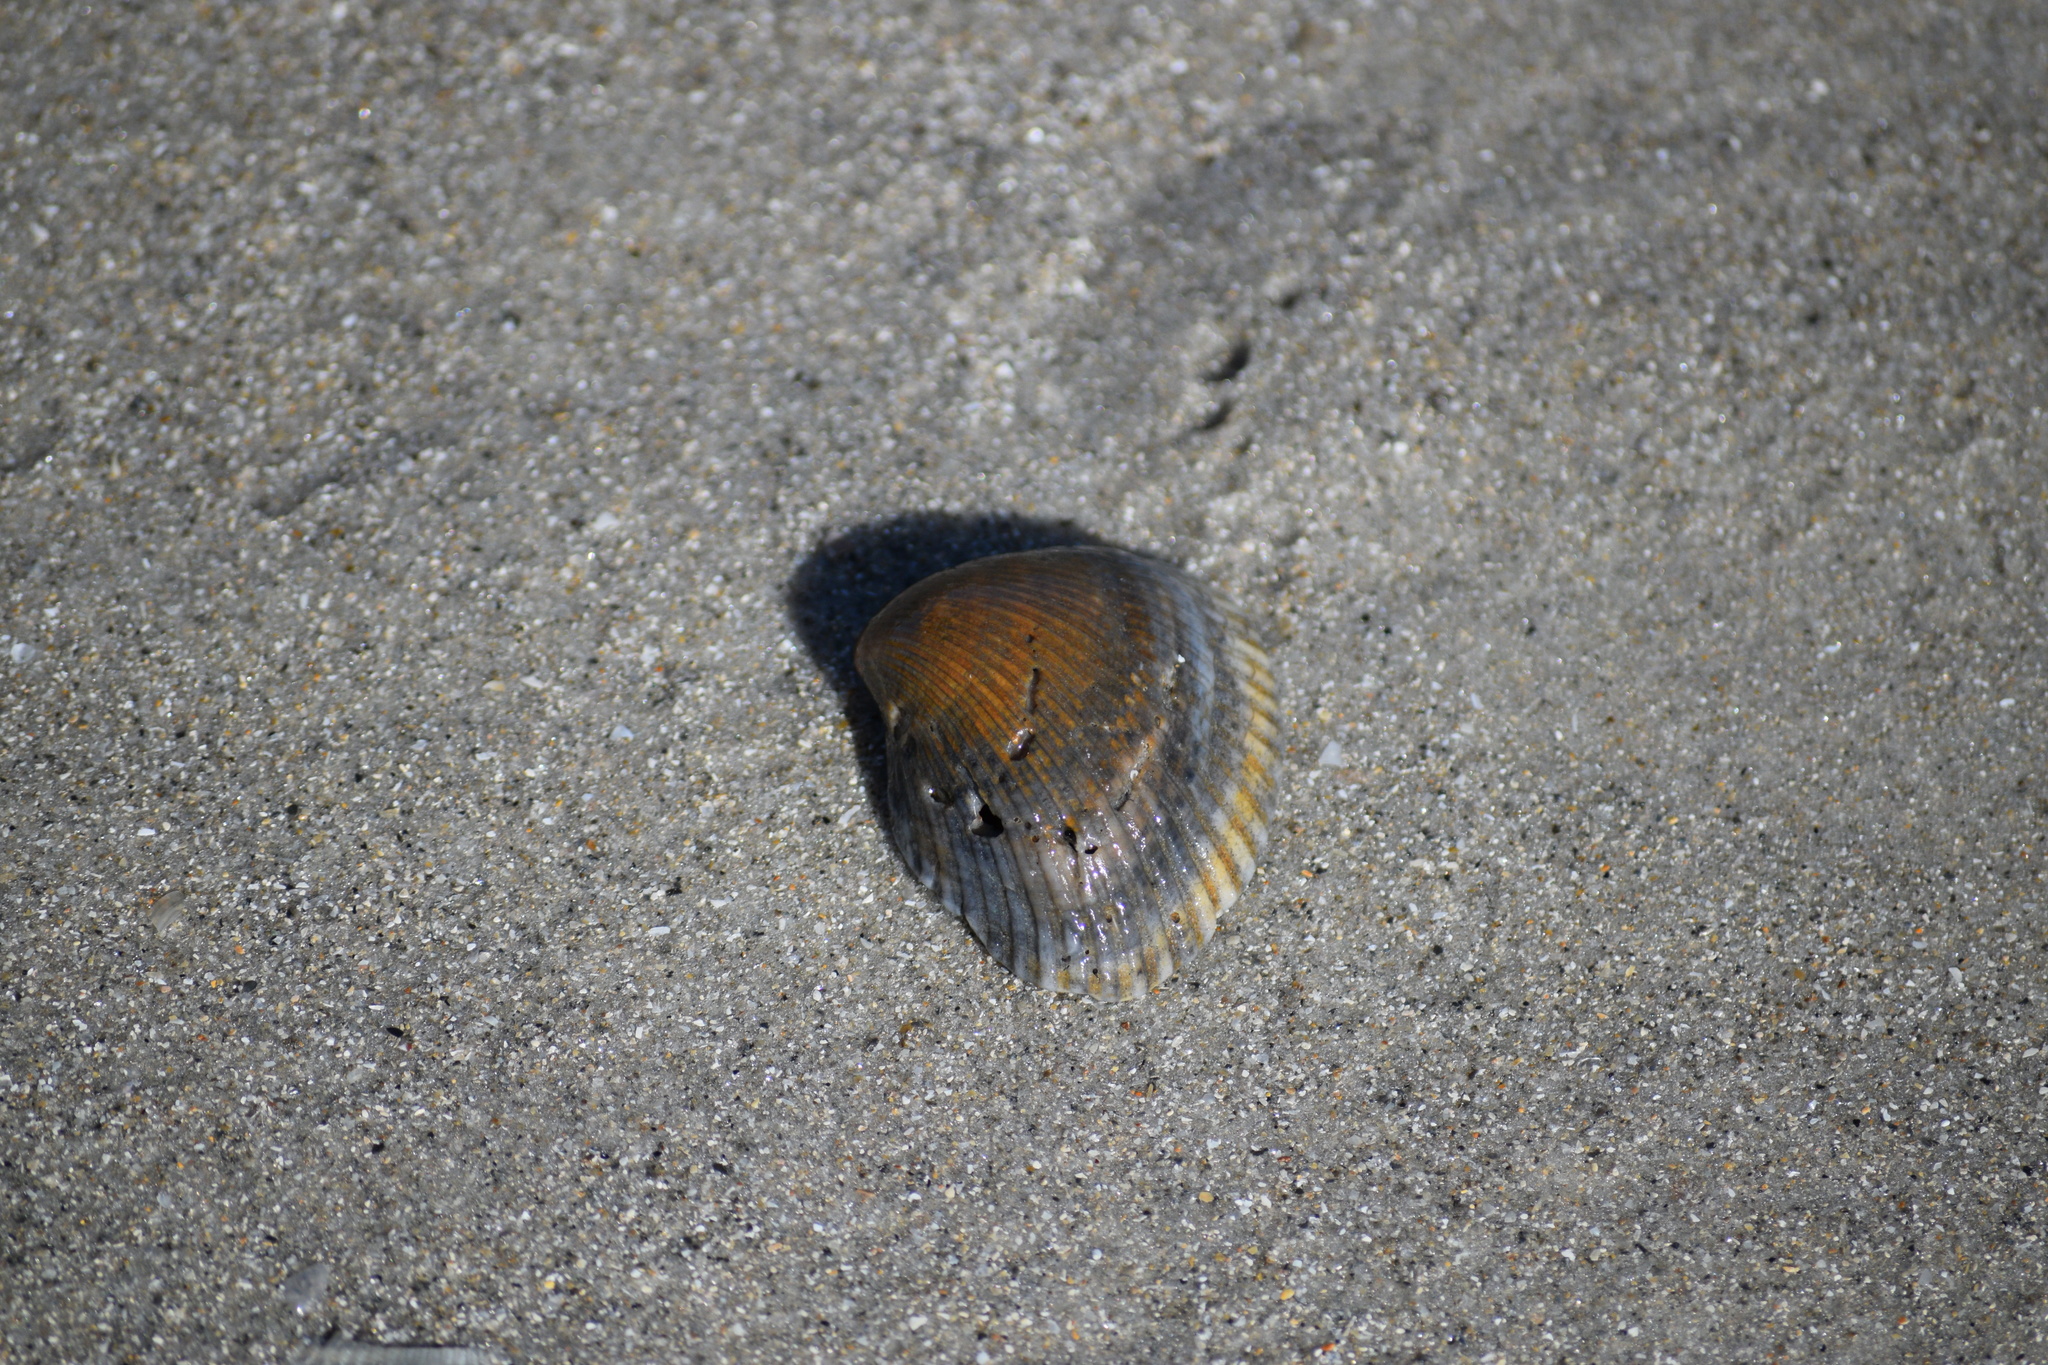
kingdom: Animalia
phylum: Mollusca
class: Bivalvia
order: Arcida
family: Noetiidae
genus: Noetia
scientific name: Noetia ponderosa
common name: Ponderous ark
